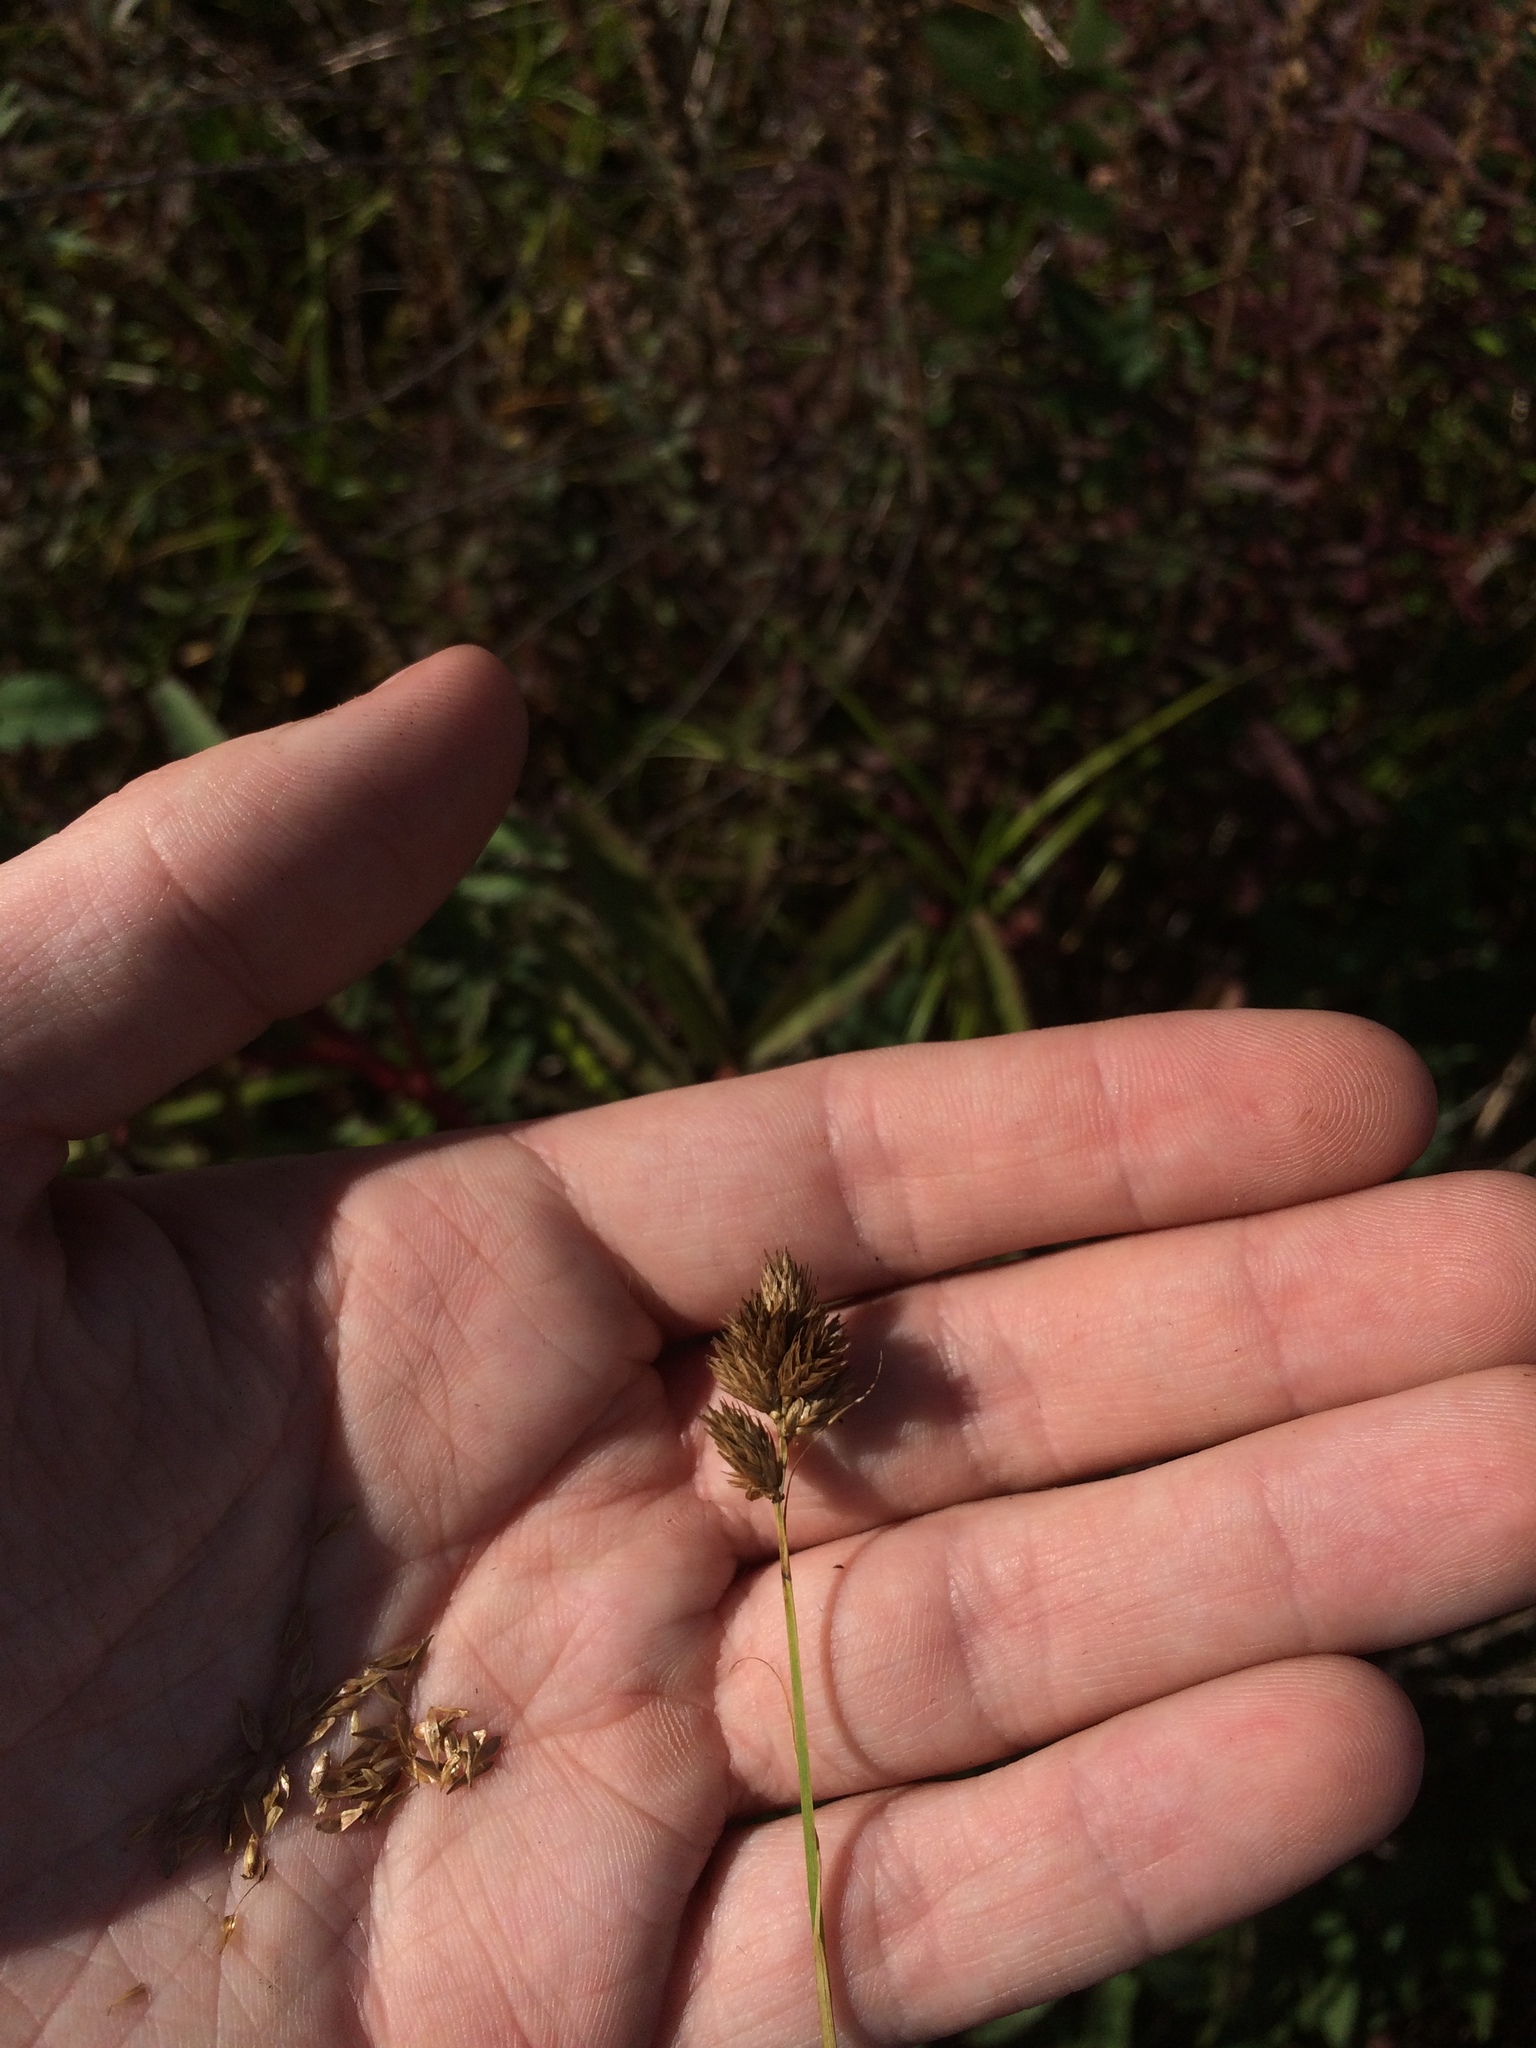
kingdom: Plantae
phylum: Tracheophyta
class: Liliopsida
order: Poales
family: Cyperaceae
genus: Carex
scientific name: Carex scoparia
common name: Broom sedge
